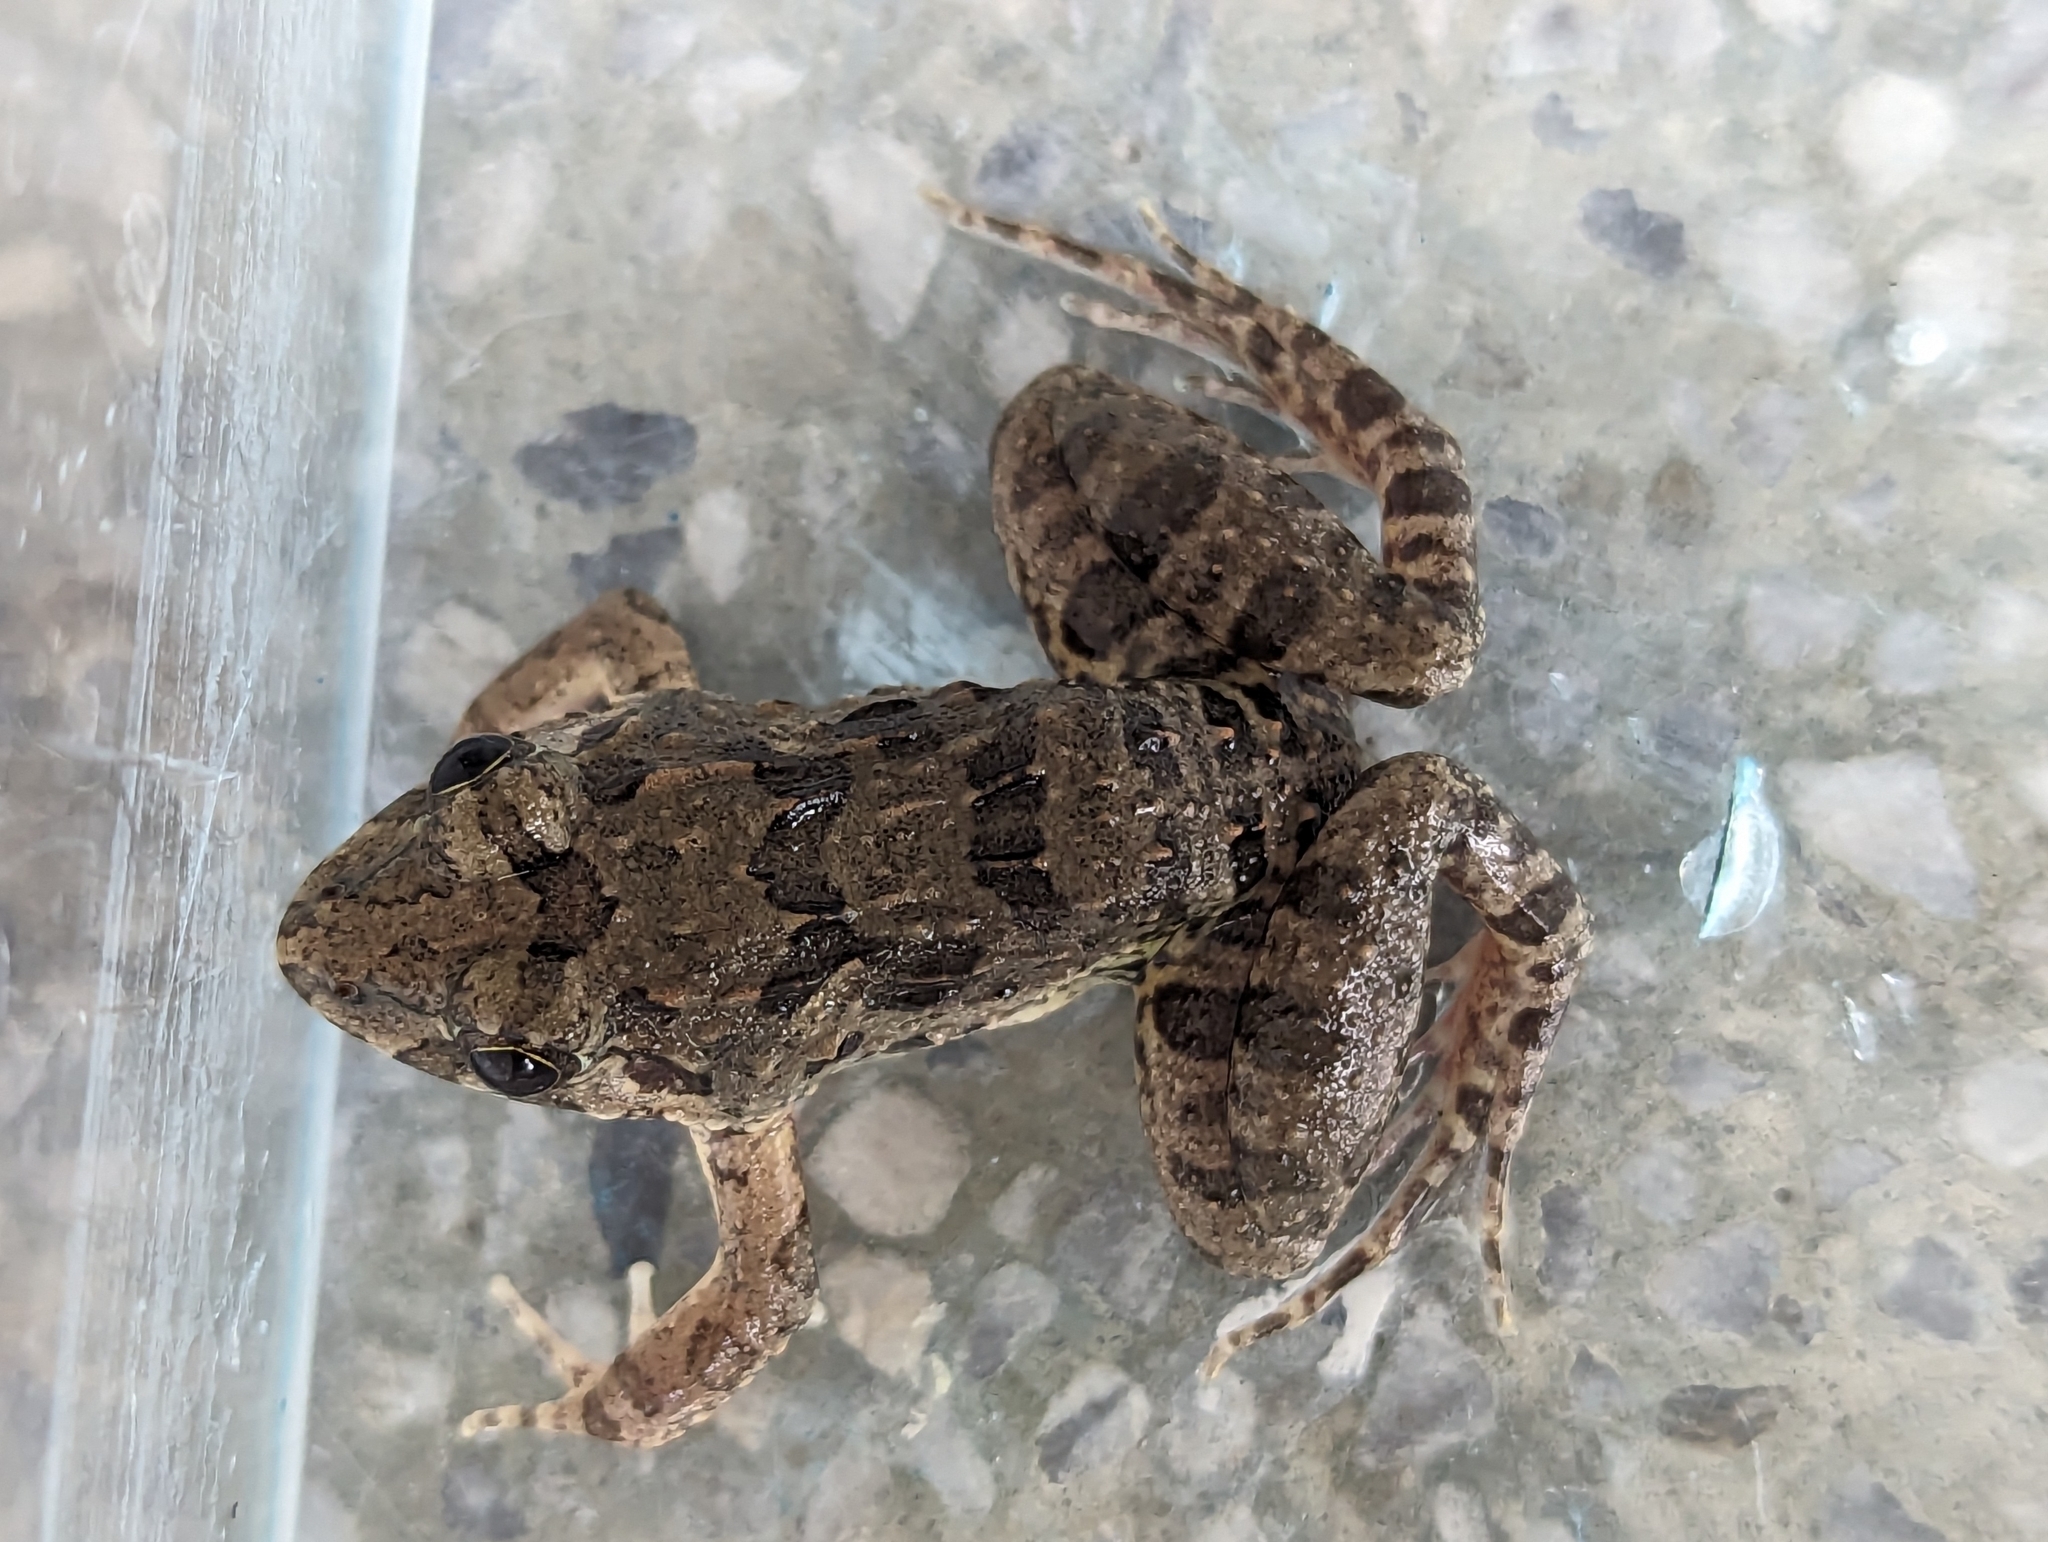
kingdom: Animalia
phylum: Chordata
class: Amphibia
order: Anura
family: Dicroglossidae
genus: Fejervarya
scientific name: Fejervarya limnocharis
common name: Asian grass frog/common pond frog/field frog/grass frog/indian rice frog
